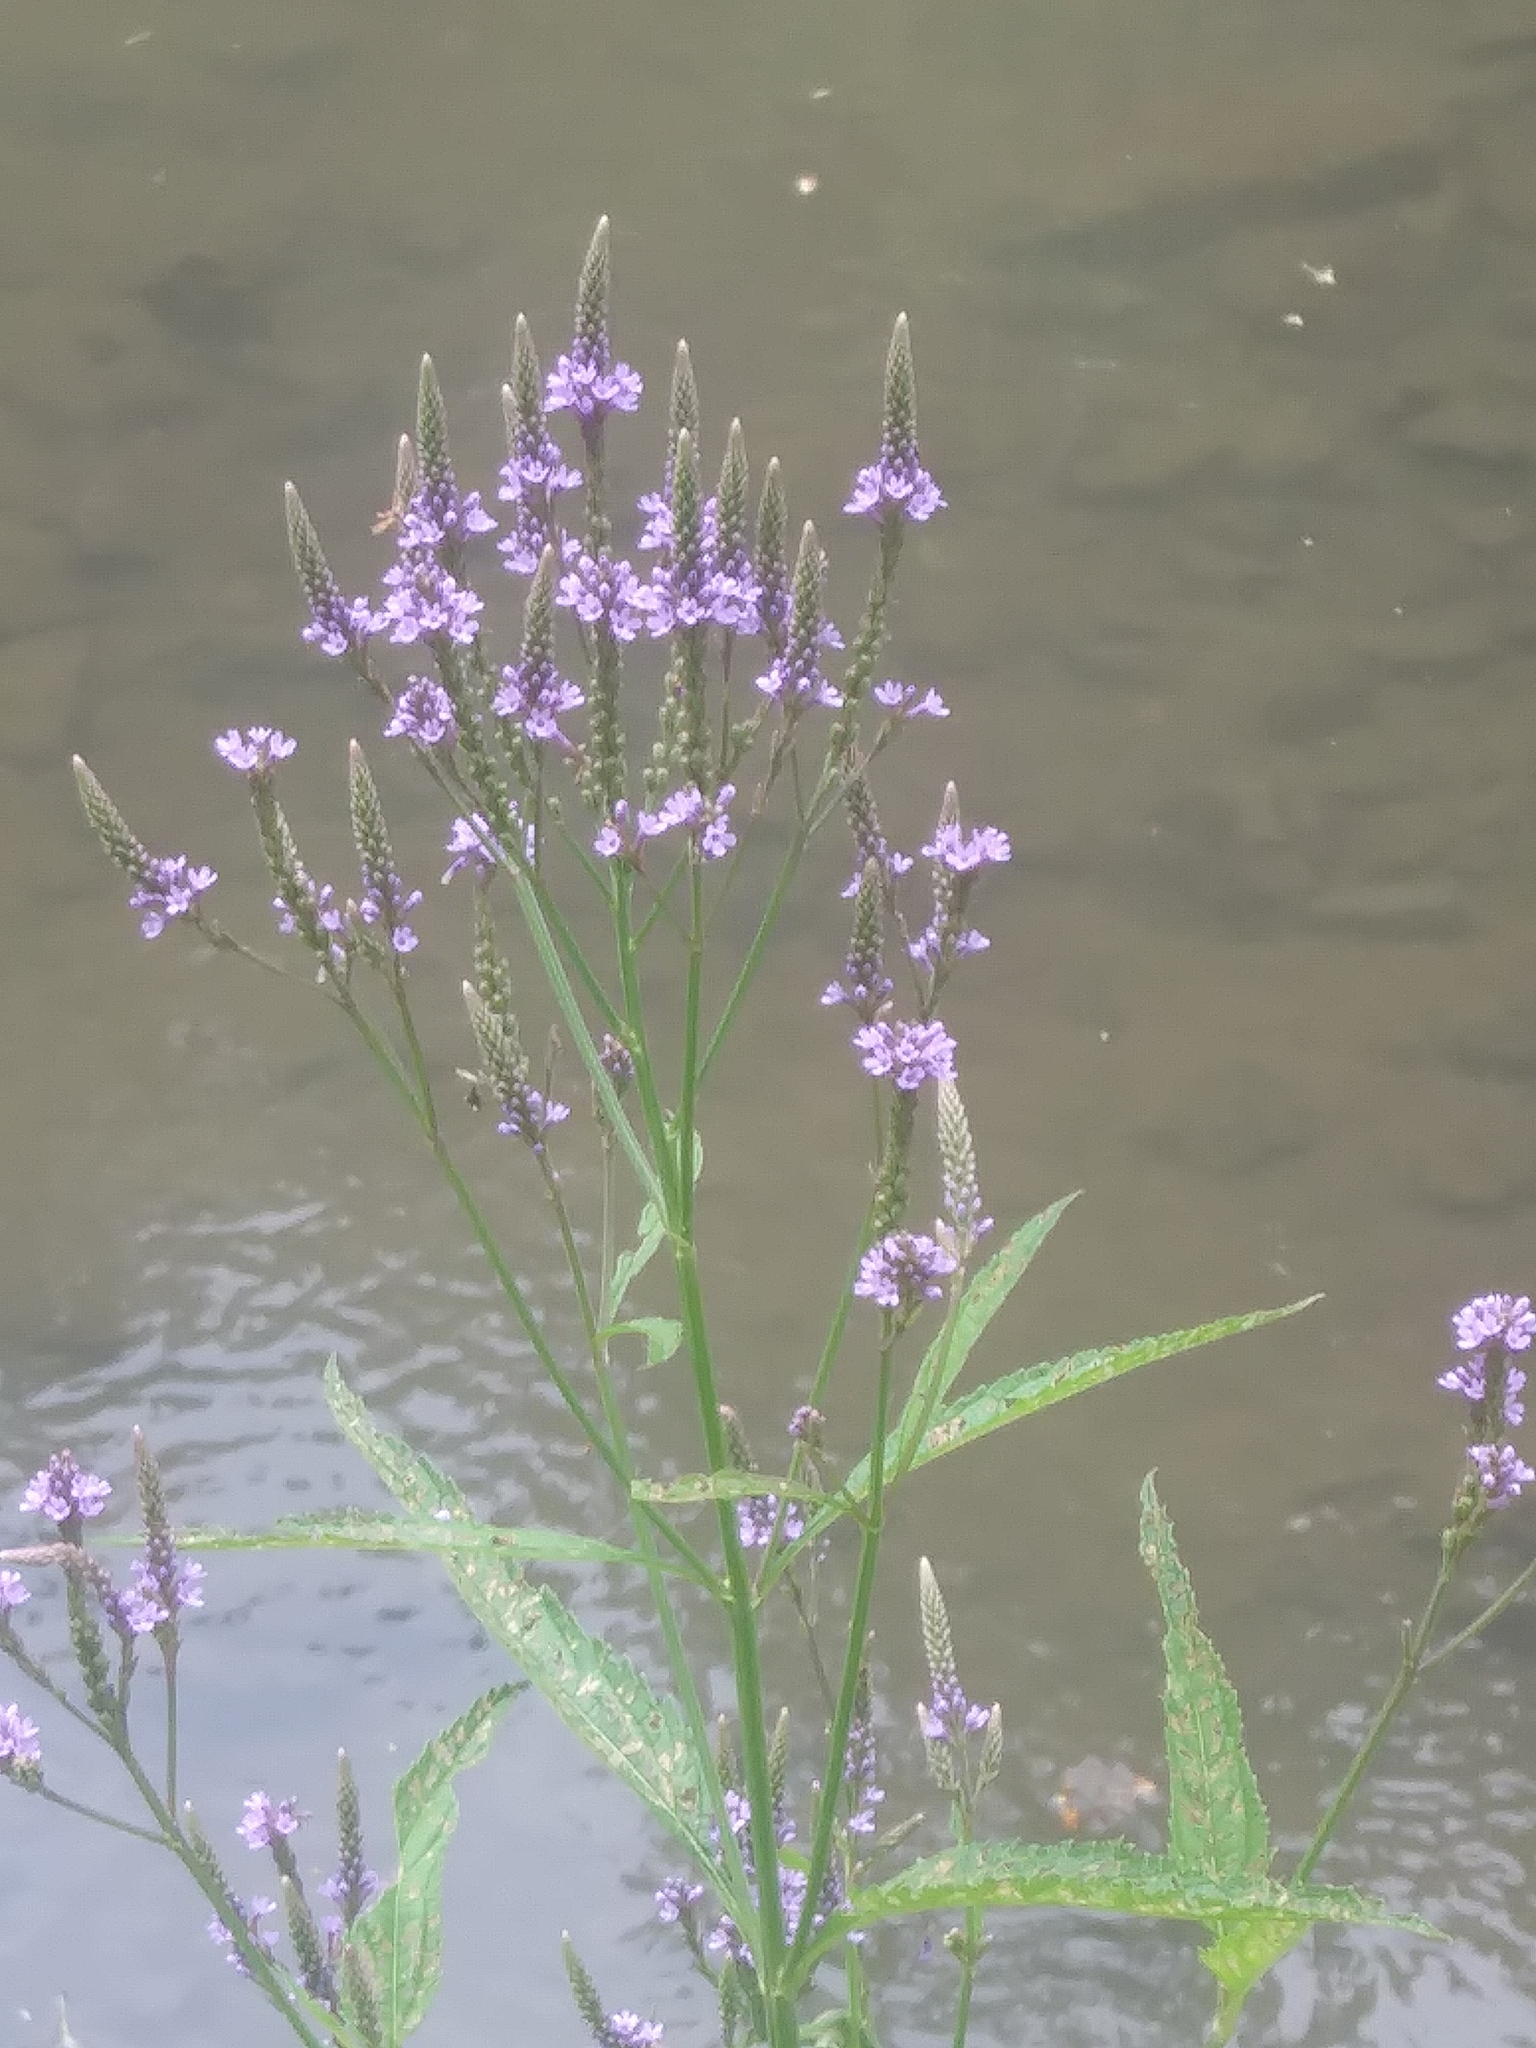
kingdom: Plantae
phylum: Tracheophyta
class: Magnoliopsida
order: Lamiales
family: Verbenaceae
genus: Verbena
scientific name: Verbena hastata
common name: American blue vervain
